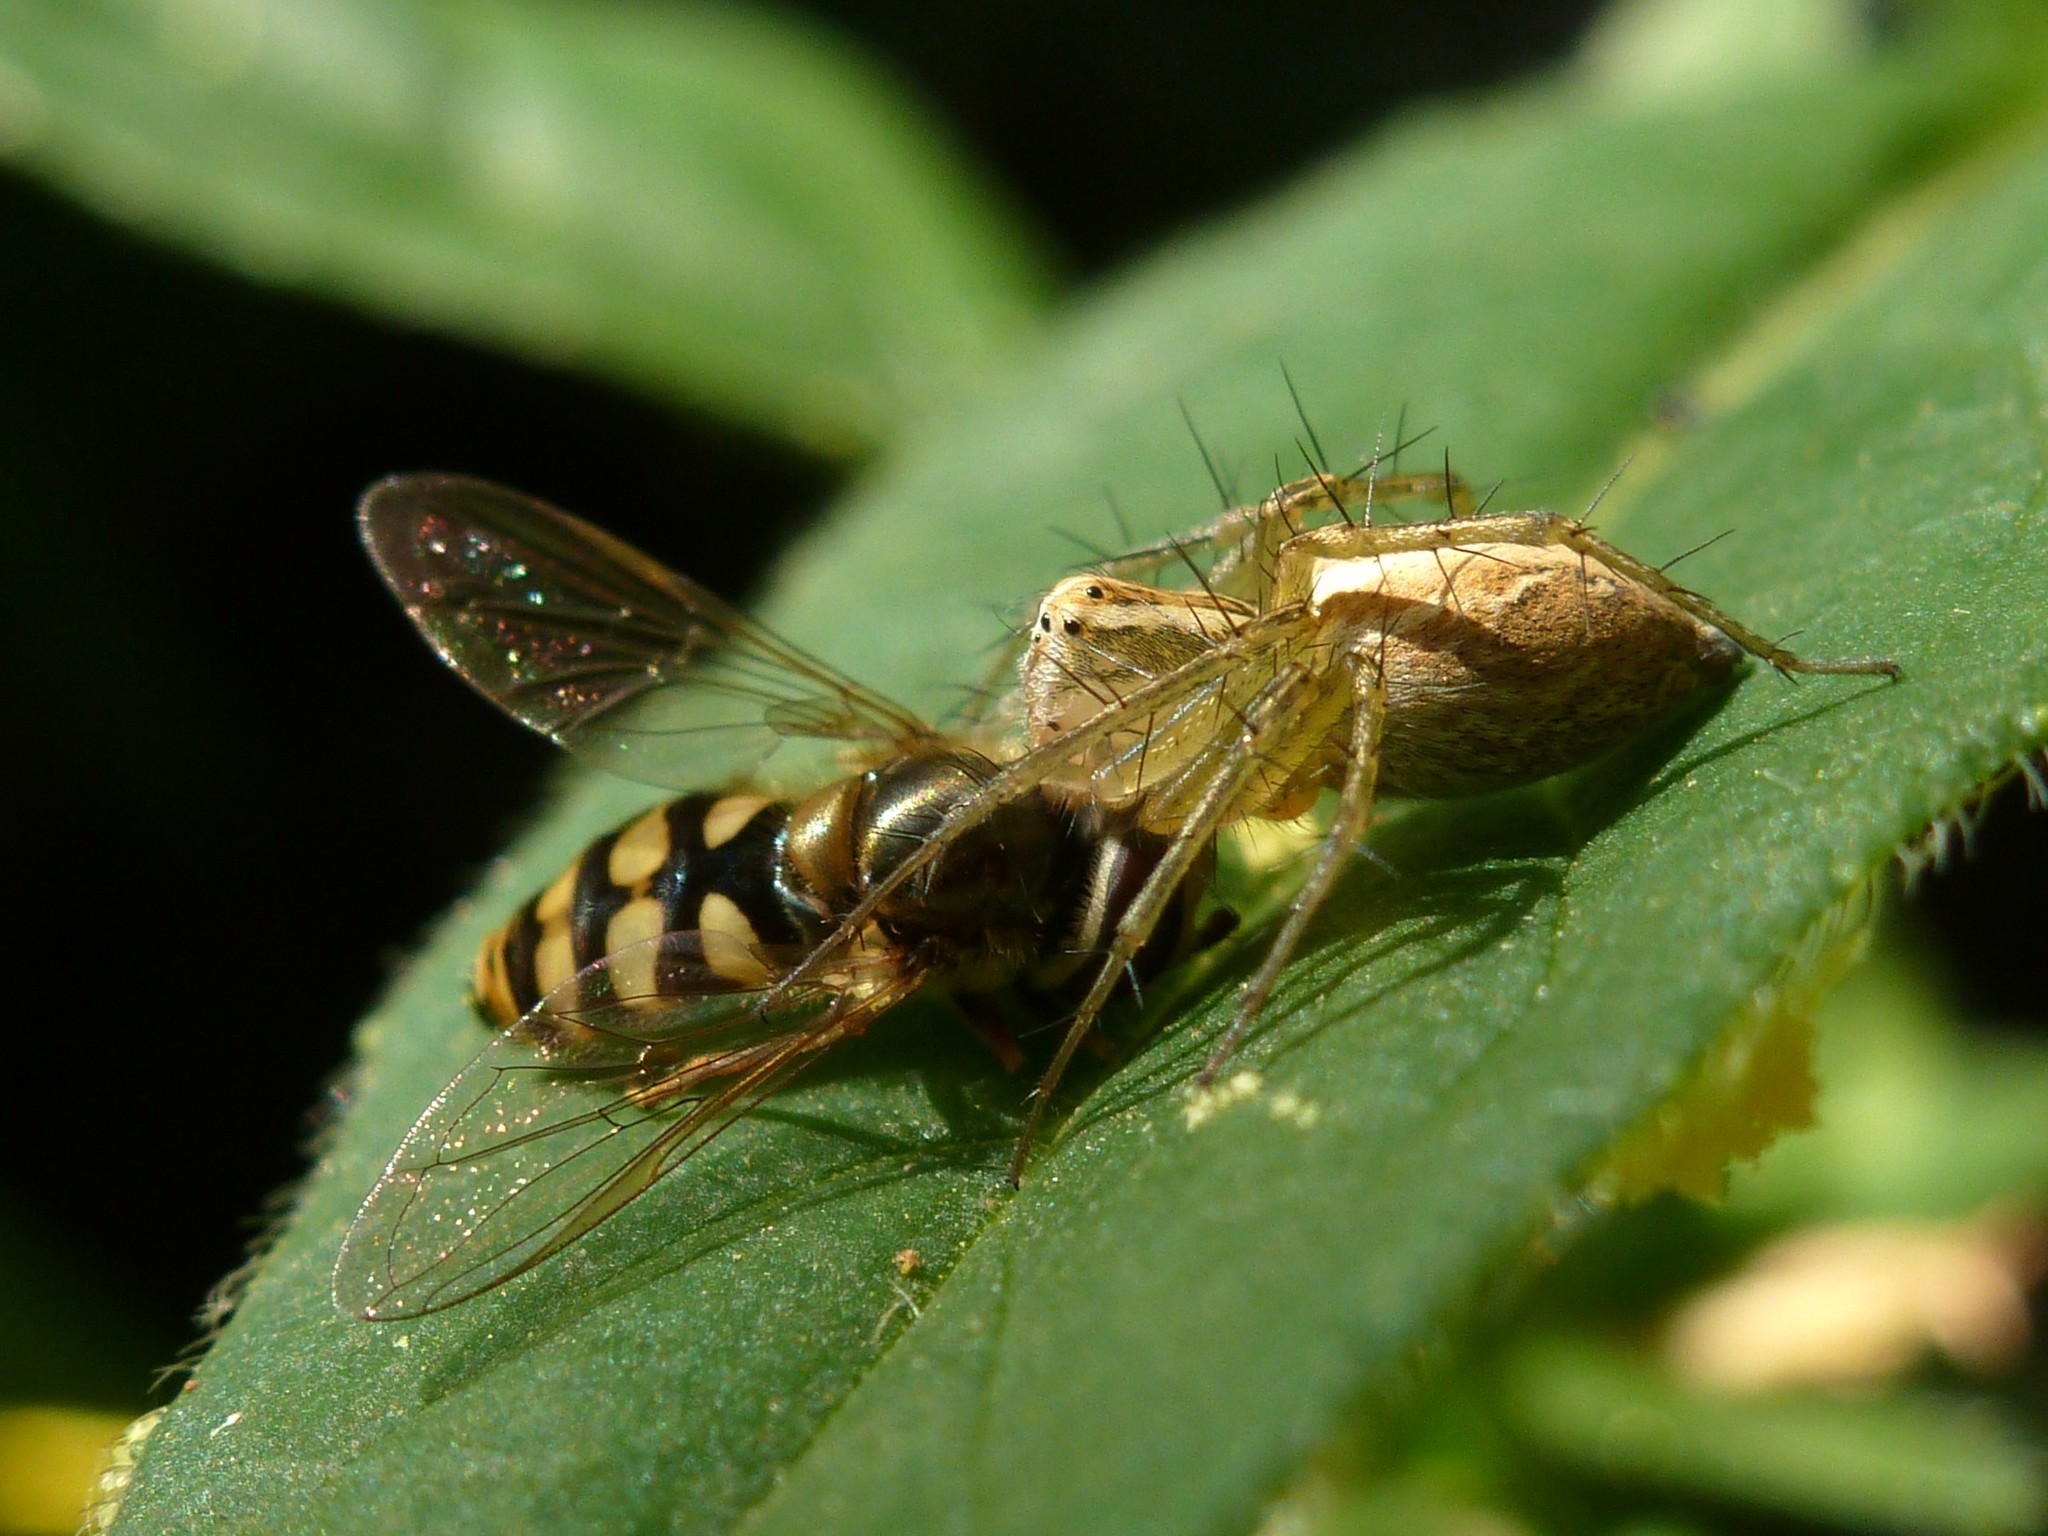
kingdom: Animalia
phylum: Arthropoda
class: Arachnida
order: Araneae
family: Oxyopidae
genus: Oxyopes
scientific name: Oxyopes lineatus
